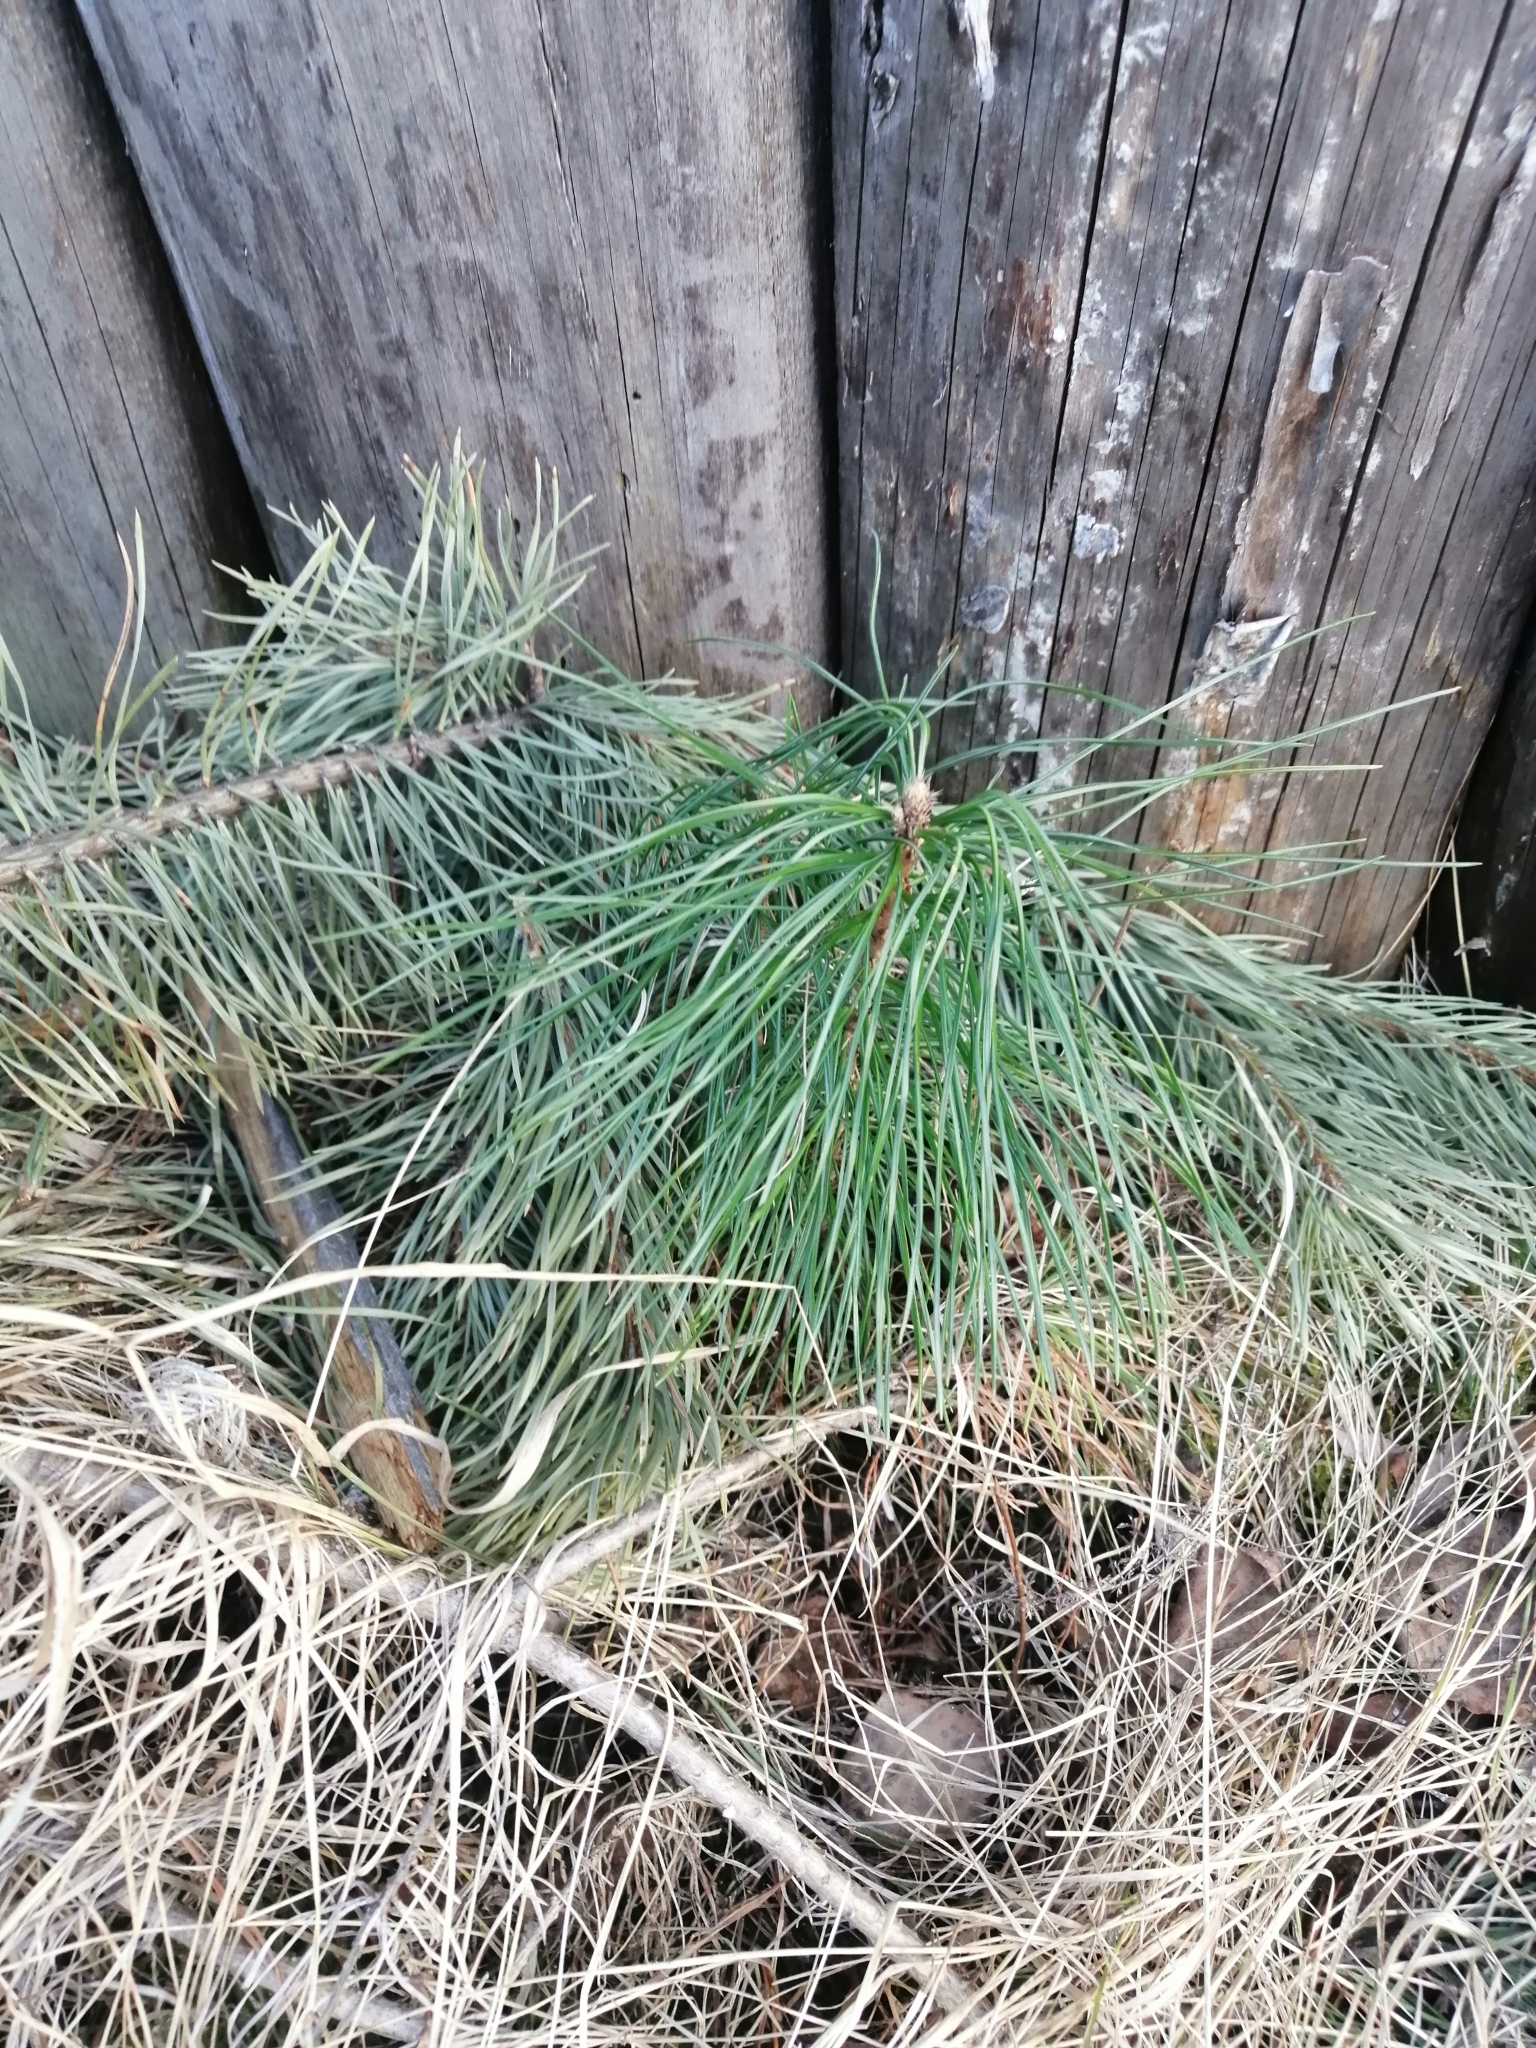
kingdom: Plantae
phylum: Tracheophyta
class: Pinopsida
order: Pinales
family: Pinaceae
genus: Pinus
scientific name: Pinus sibirica
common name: Siberian pine
